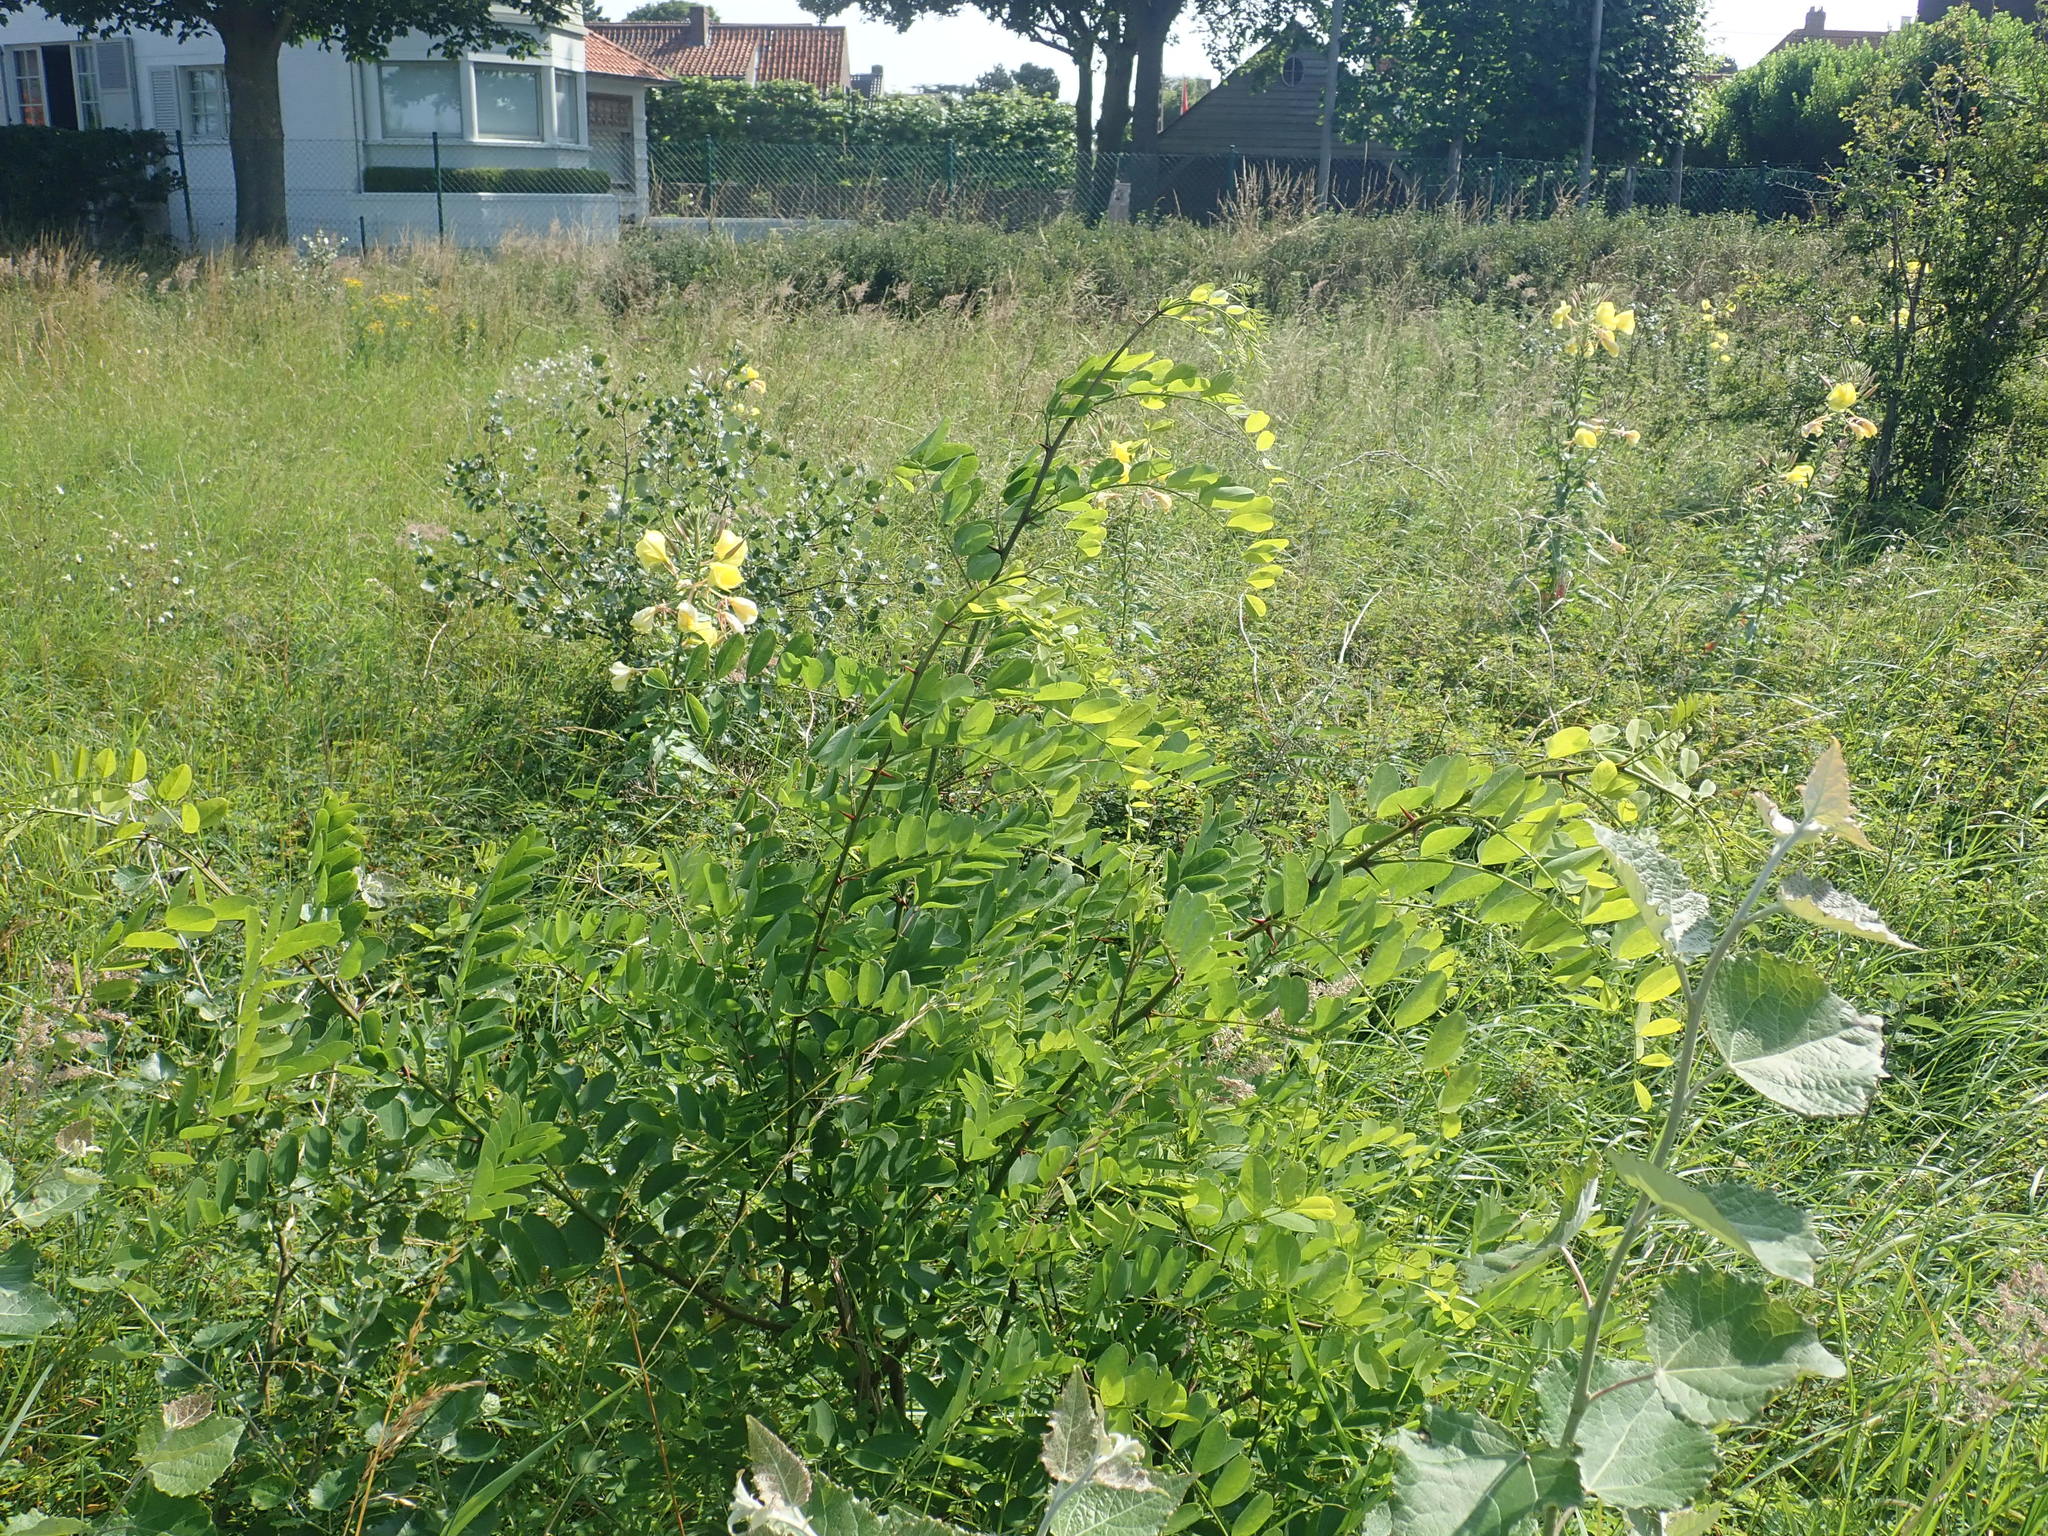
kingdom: Plantae
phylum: Tracheophyta
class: Magnoliopsida
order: Fabales
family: Fabaceae
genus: Robinia
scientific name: Robinia pseudoacacia
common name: Black locust
